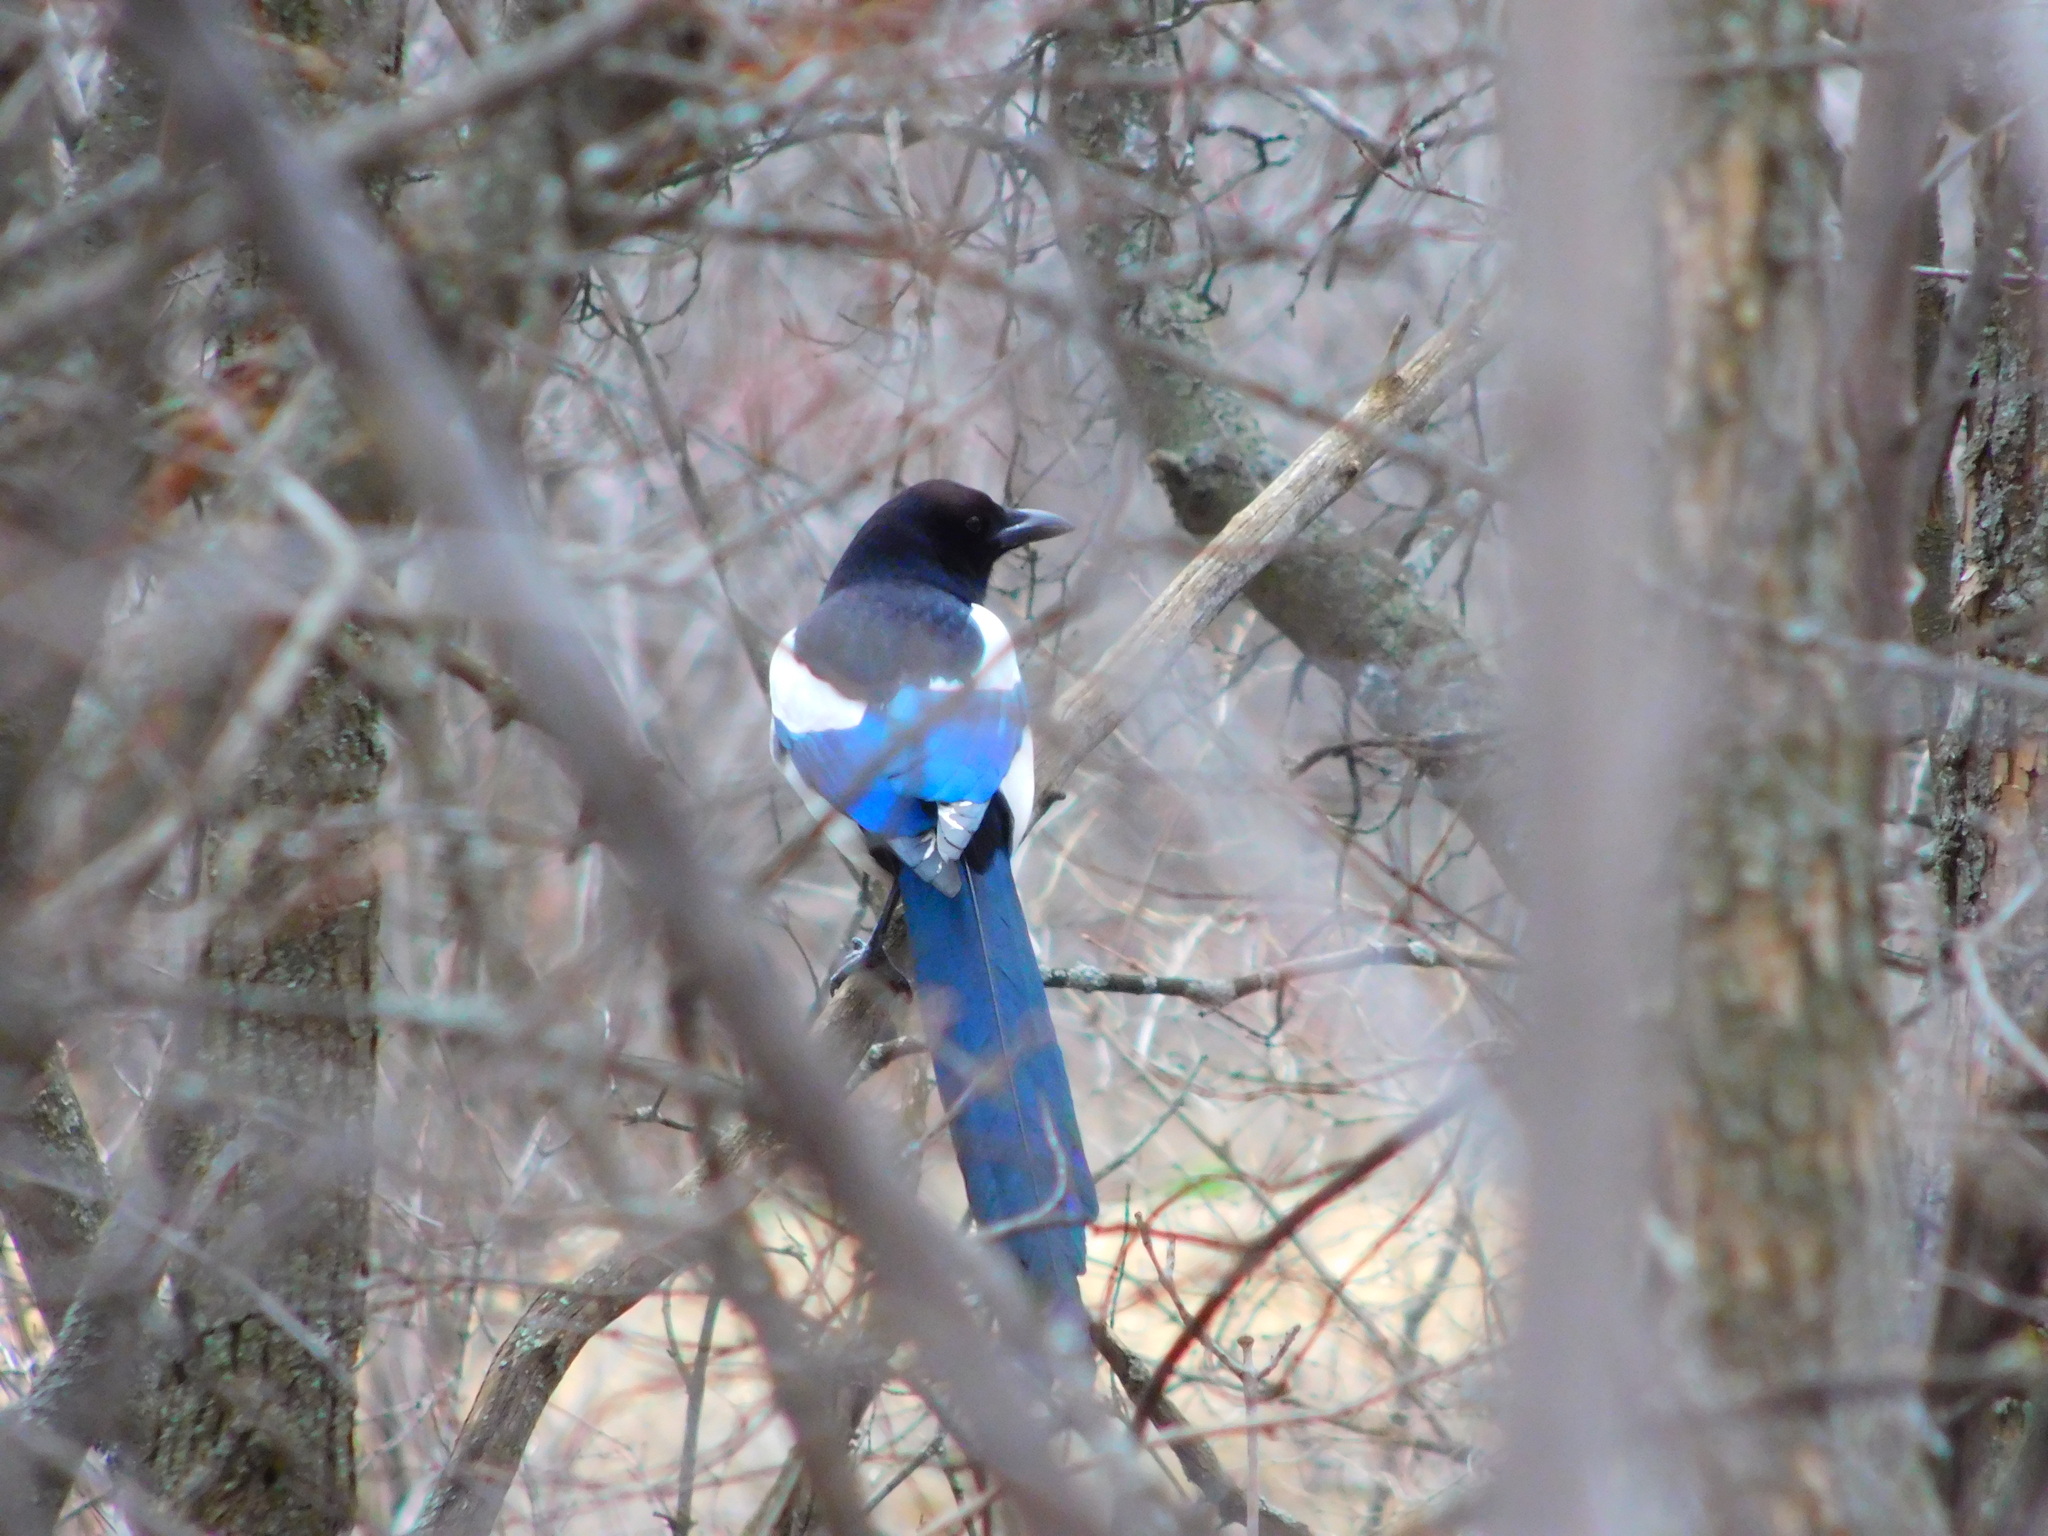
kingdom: Animalia
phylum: Chordata
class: Aves
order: Passeriformes
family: Corvidae
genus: Pica
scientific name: Pica pica
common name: Eurasian magpie
